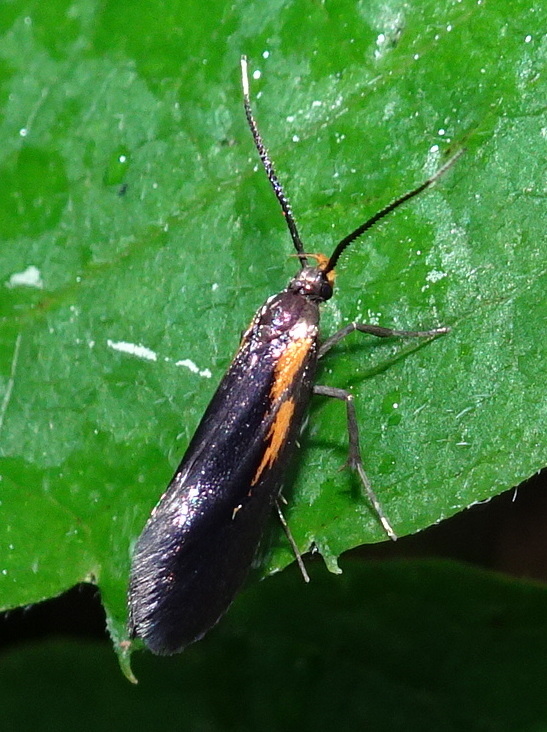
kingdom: Animalia
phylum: Arthropoda
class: Insecta
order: Lepidoptera
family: Oecophoridae
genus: Mathildana
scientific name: Mathildana newmanella
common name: Newman's mathildana moth
